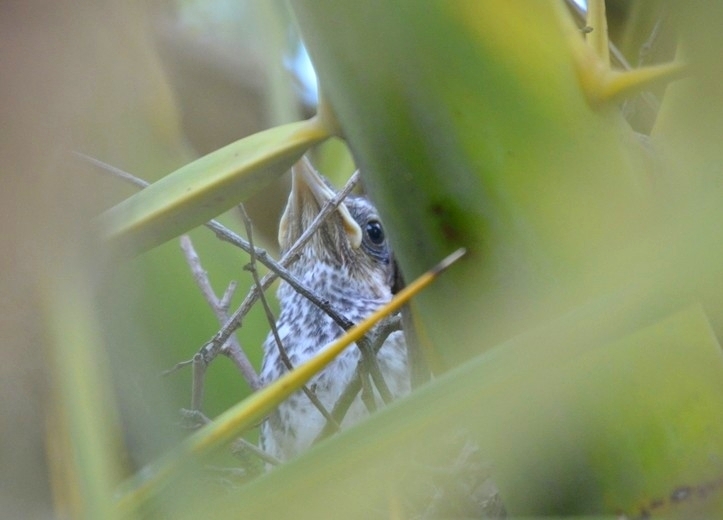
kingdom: Animalia
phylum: Chordata
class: Aves
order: Passeriformes
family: Mimidae
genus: Mimus
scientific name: Mimus saturninus
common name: Chalk-browed mockingbird
